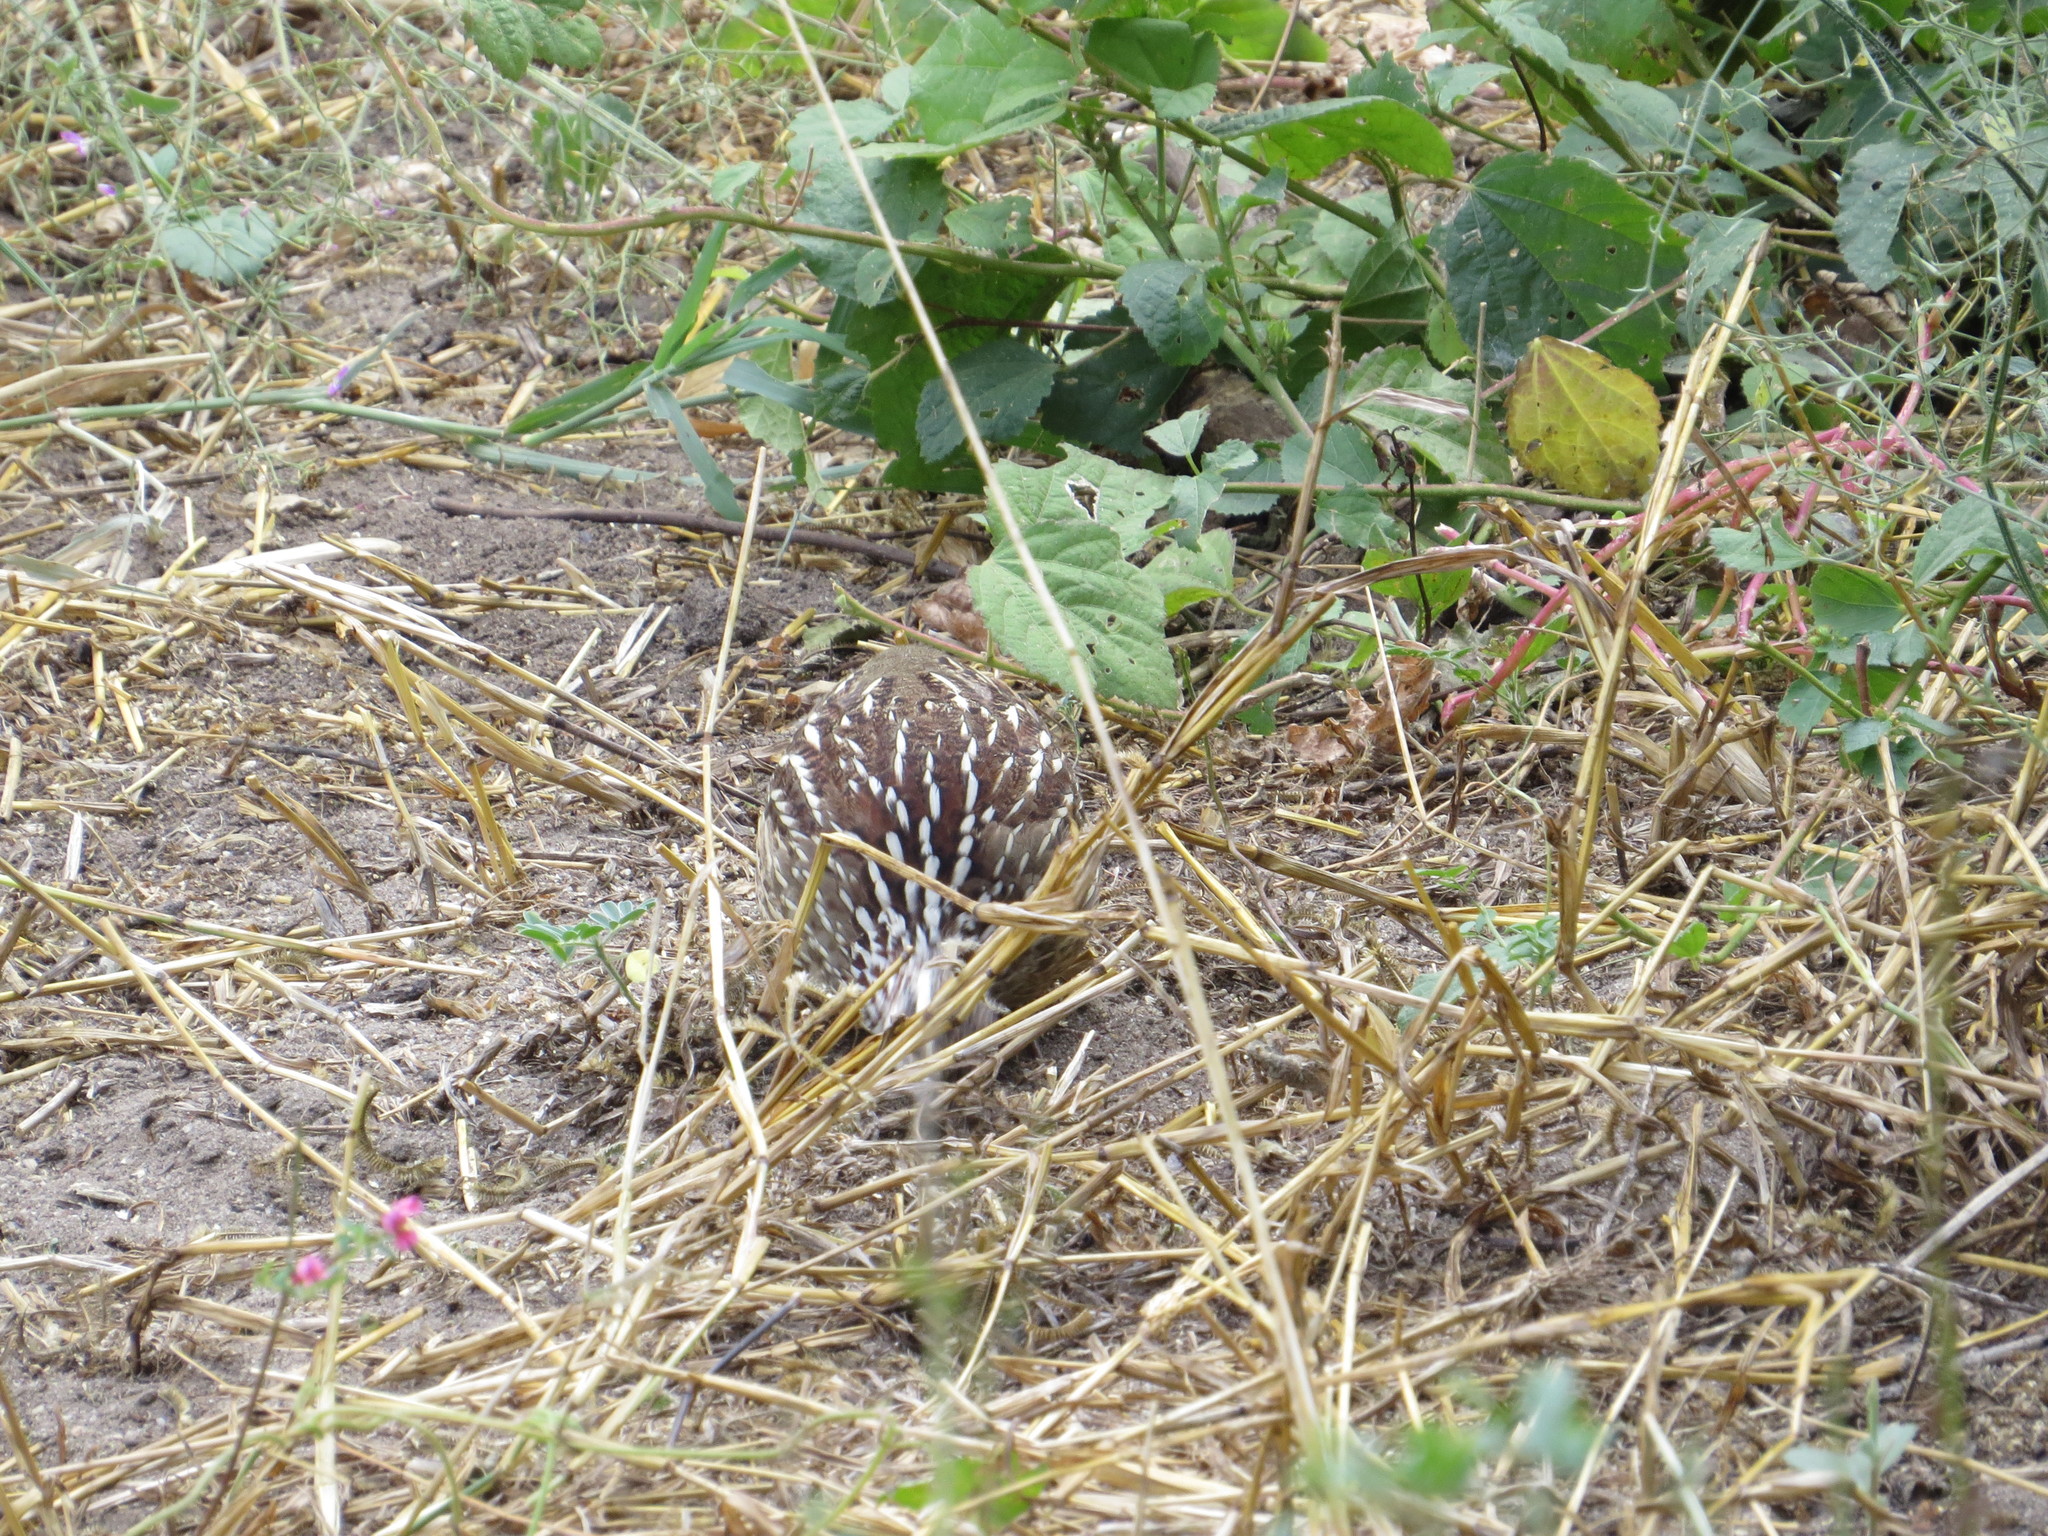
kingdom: Animalia
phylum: Chordata
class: Aves
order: Galliformes
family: Phasianidae
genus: Ortygornis
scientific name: Ortygornis sephaena
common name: Crested francolin
